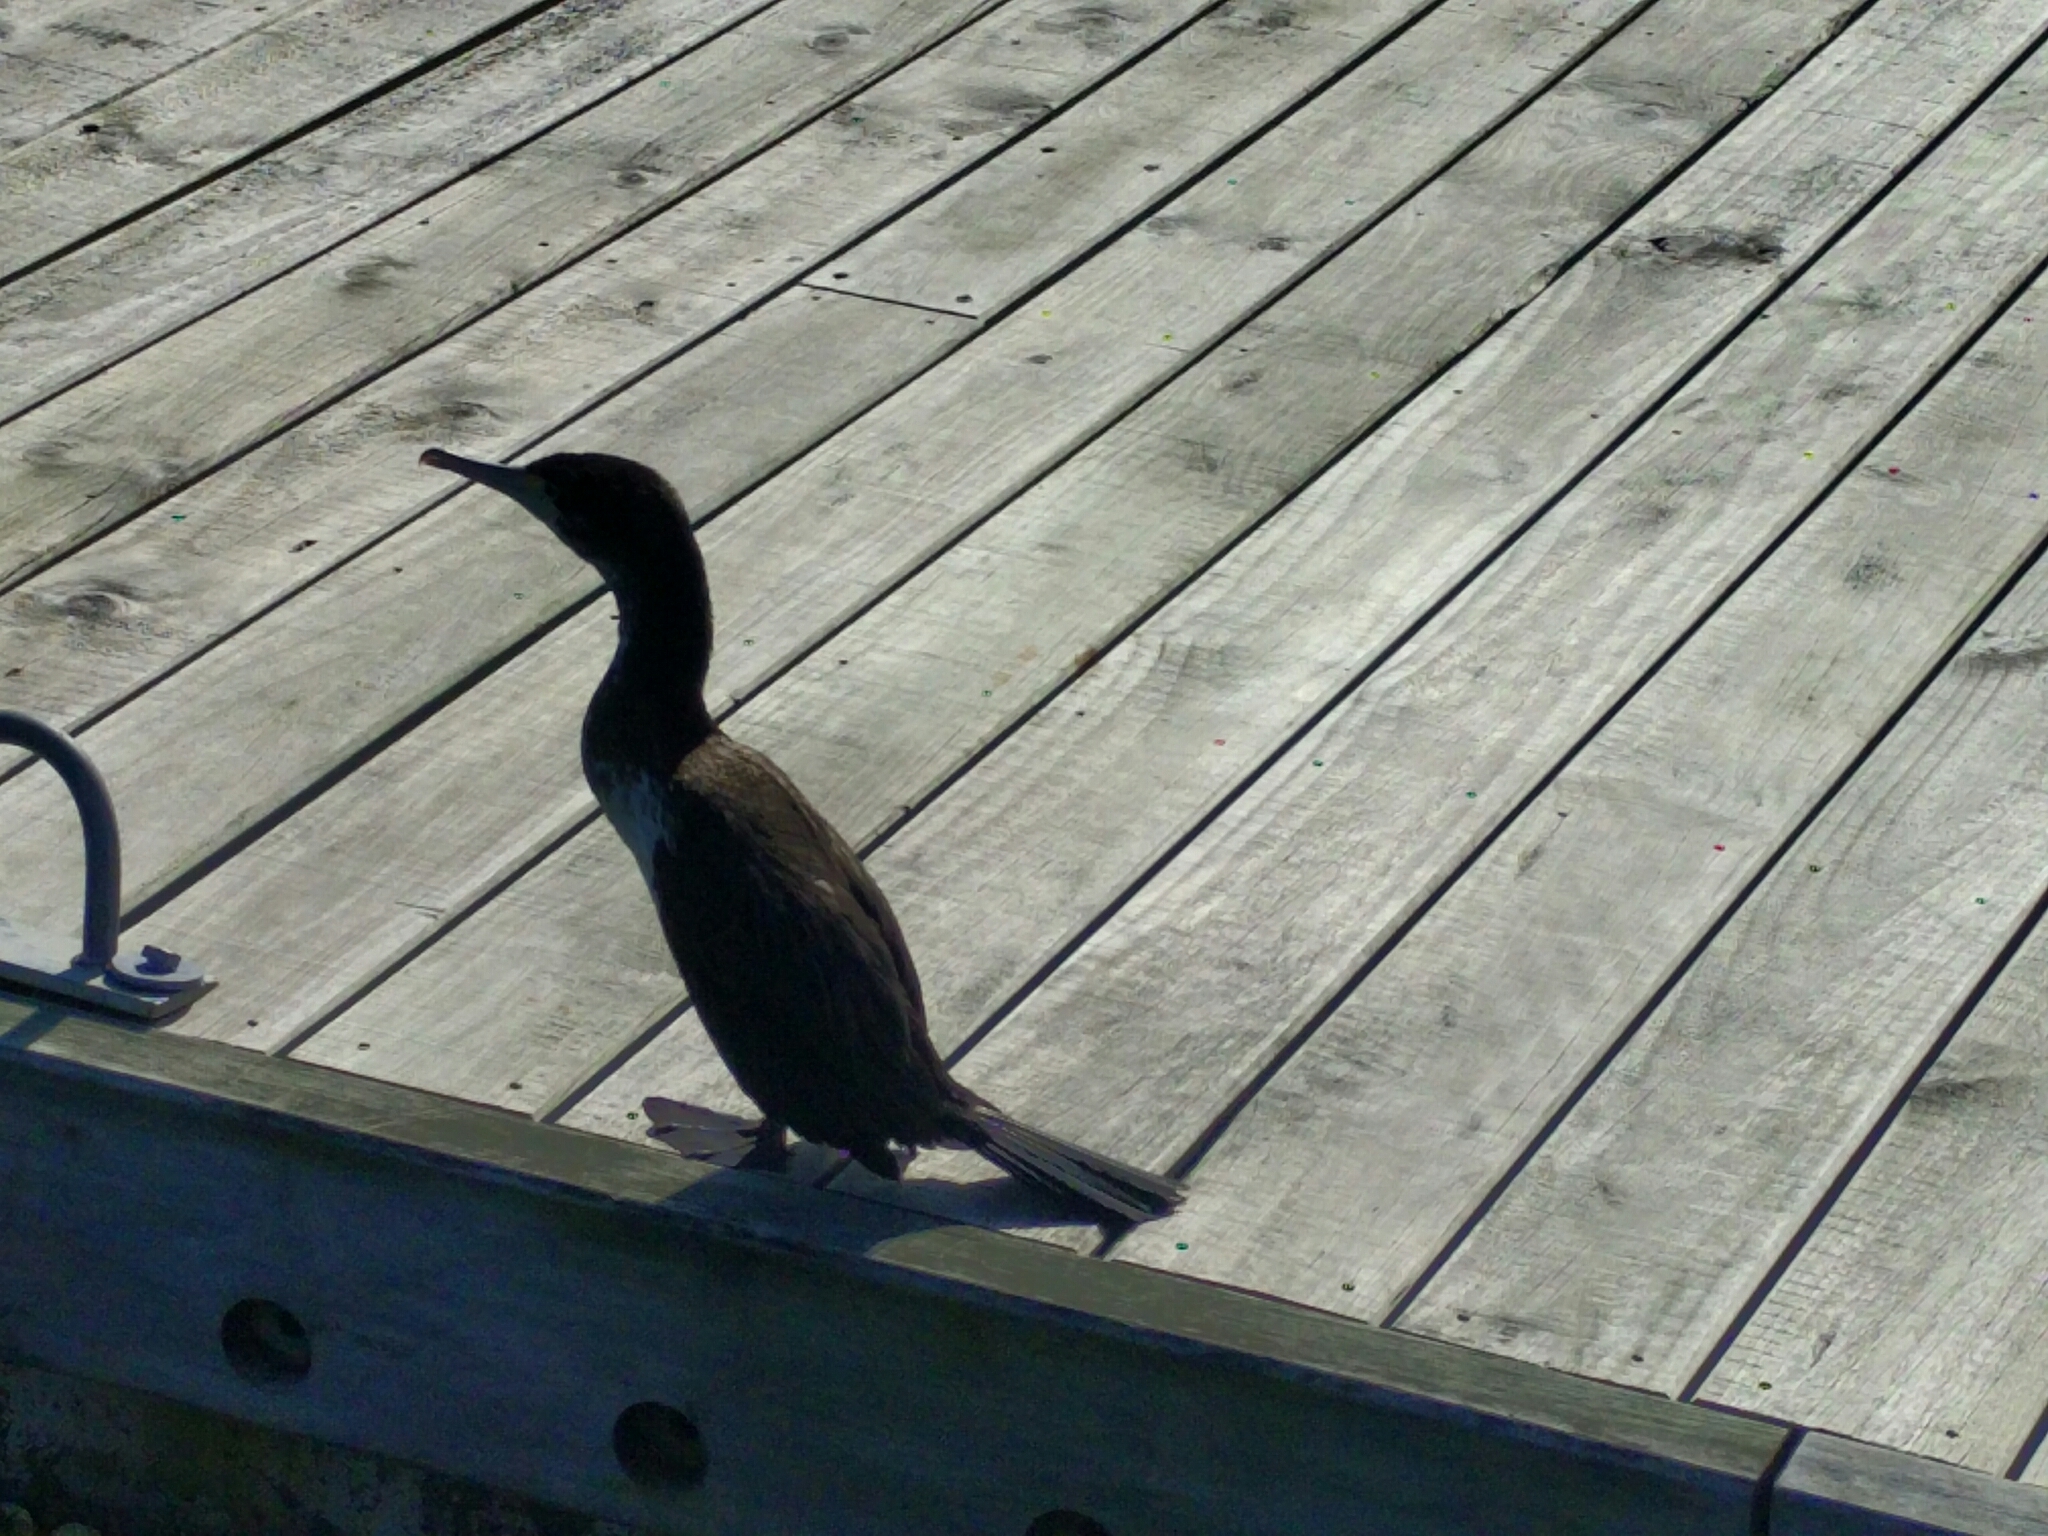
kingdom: Animalia
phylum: Chordata
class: Aves
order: Suliformes
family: Phalacrocoracidae
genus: Phalacrocorax
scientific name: Phalacrocorax varius
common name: Pied cormorant
